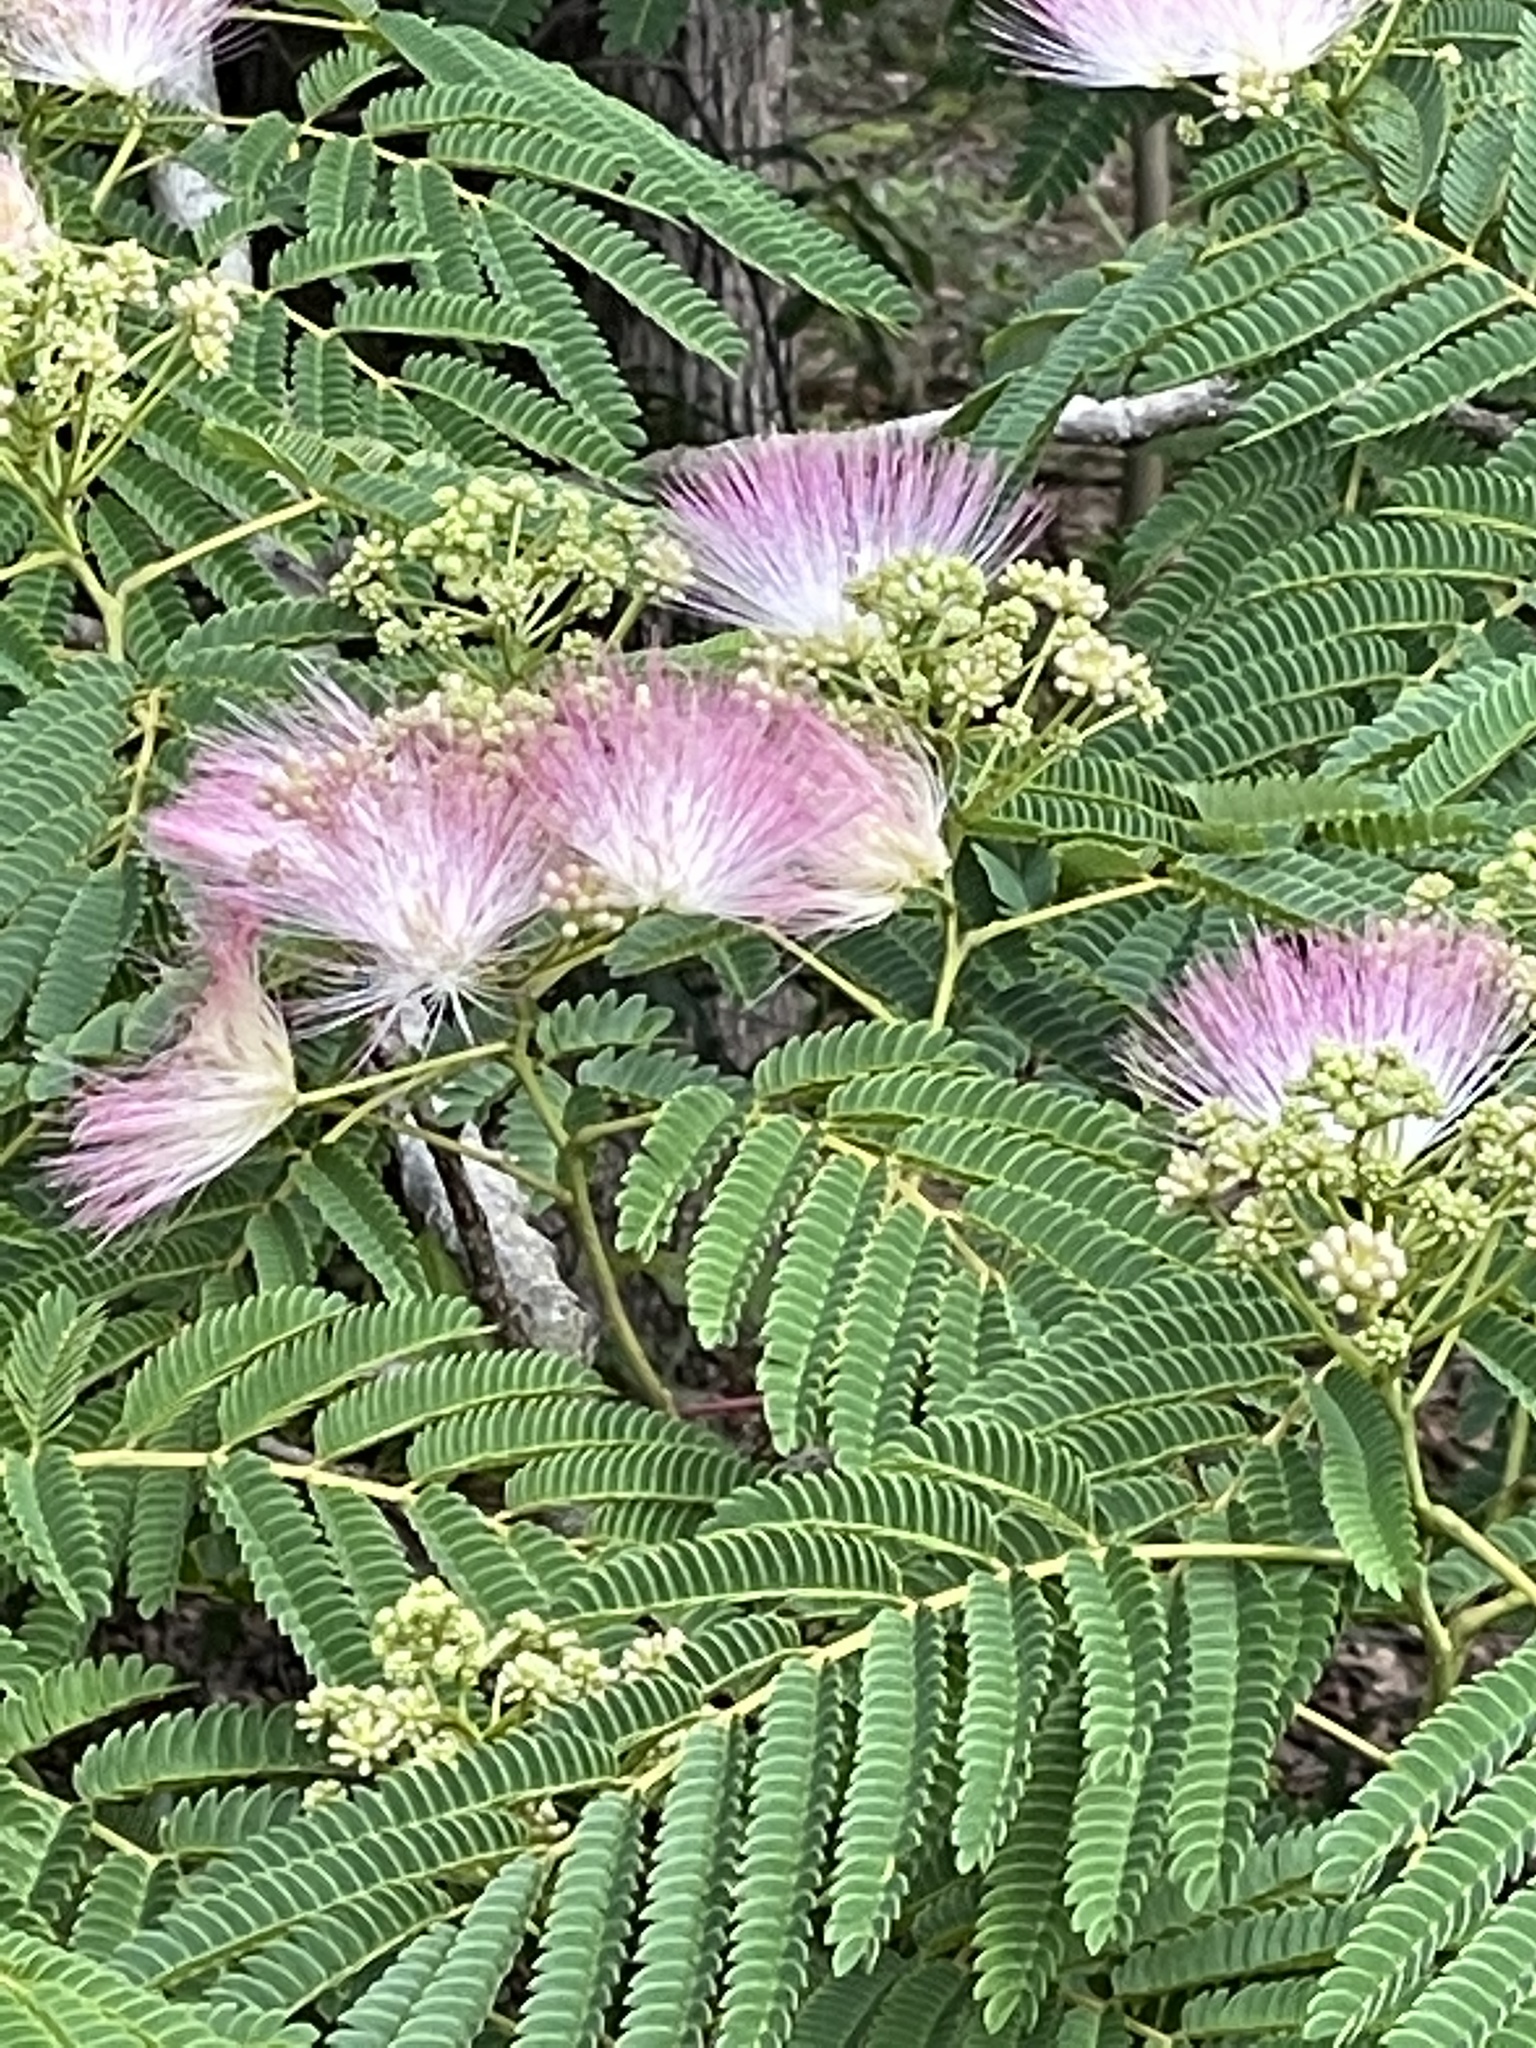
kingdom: Plantae
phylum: Tracheophyta
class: Magnoliopsida
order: Fabales
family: Fabaceae
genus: Albizia
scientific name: Albizia julibrissin
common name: Silktree
